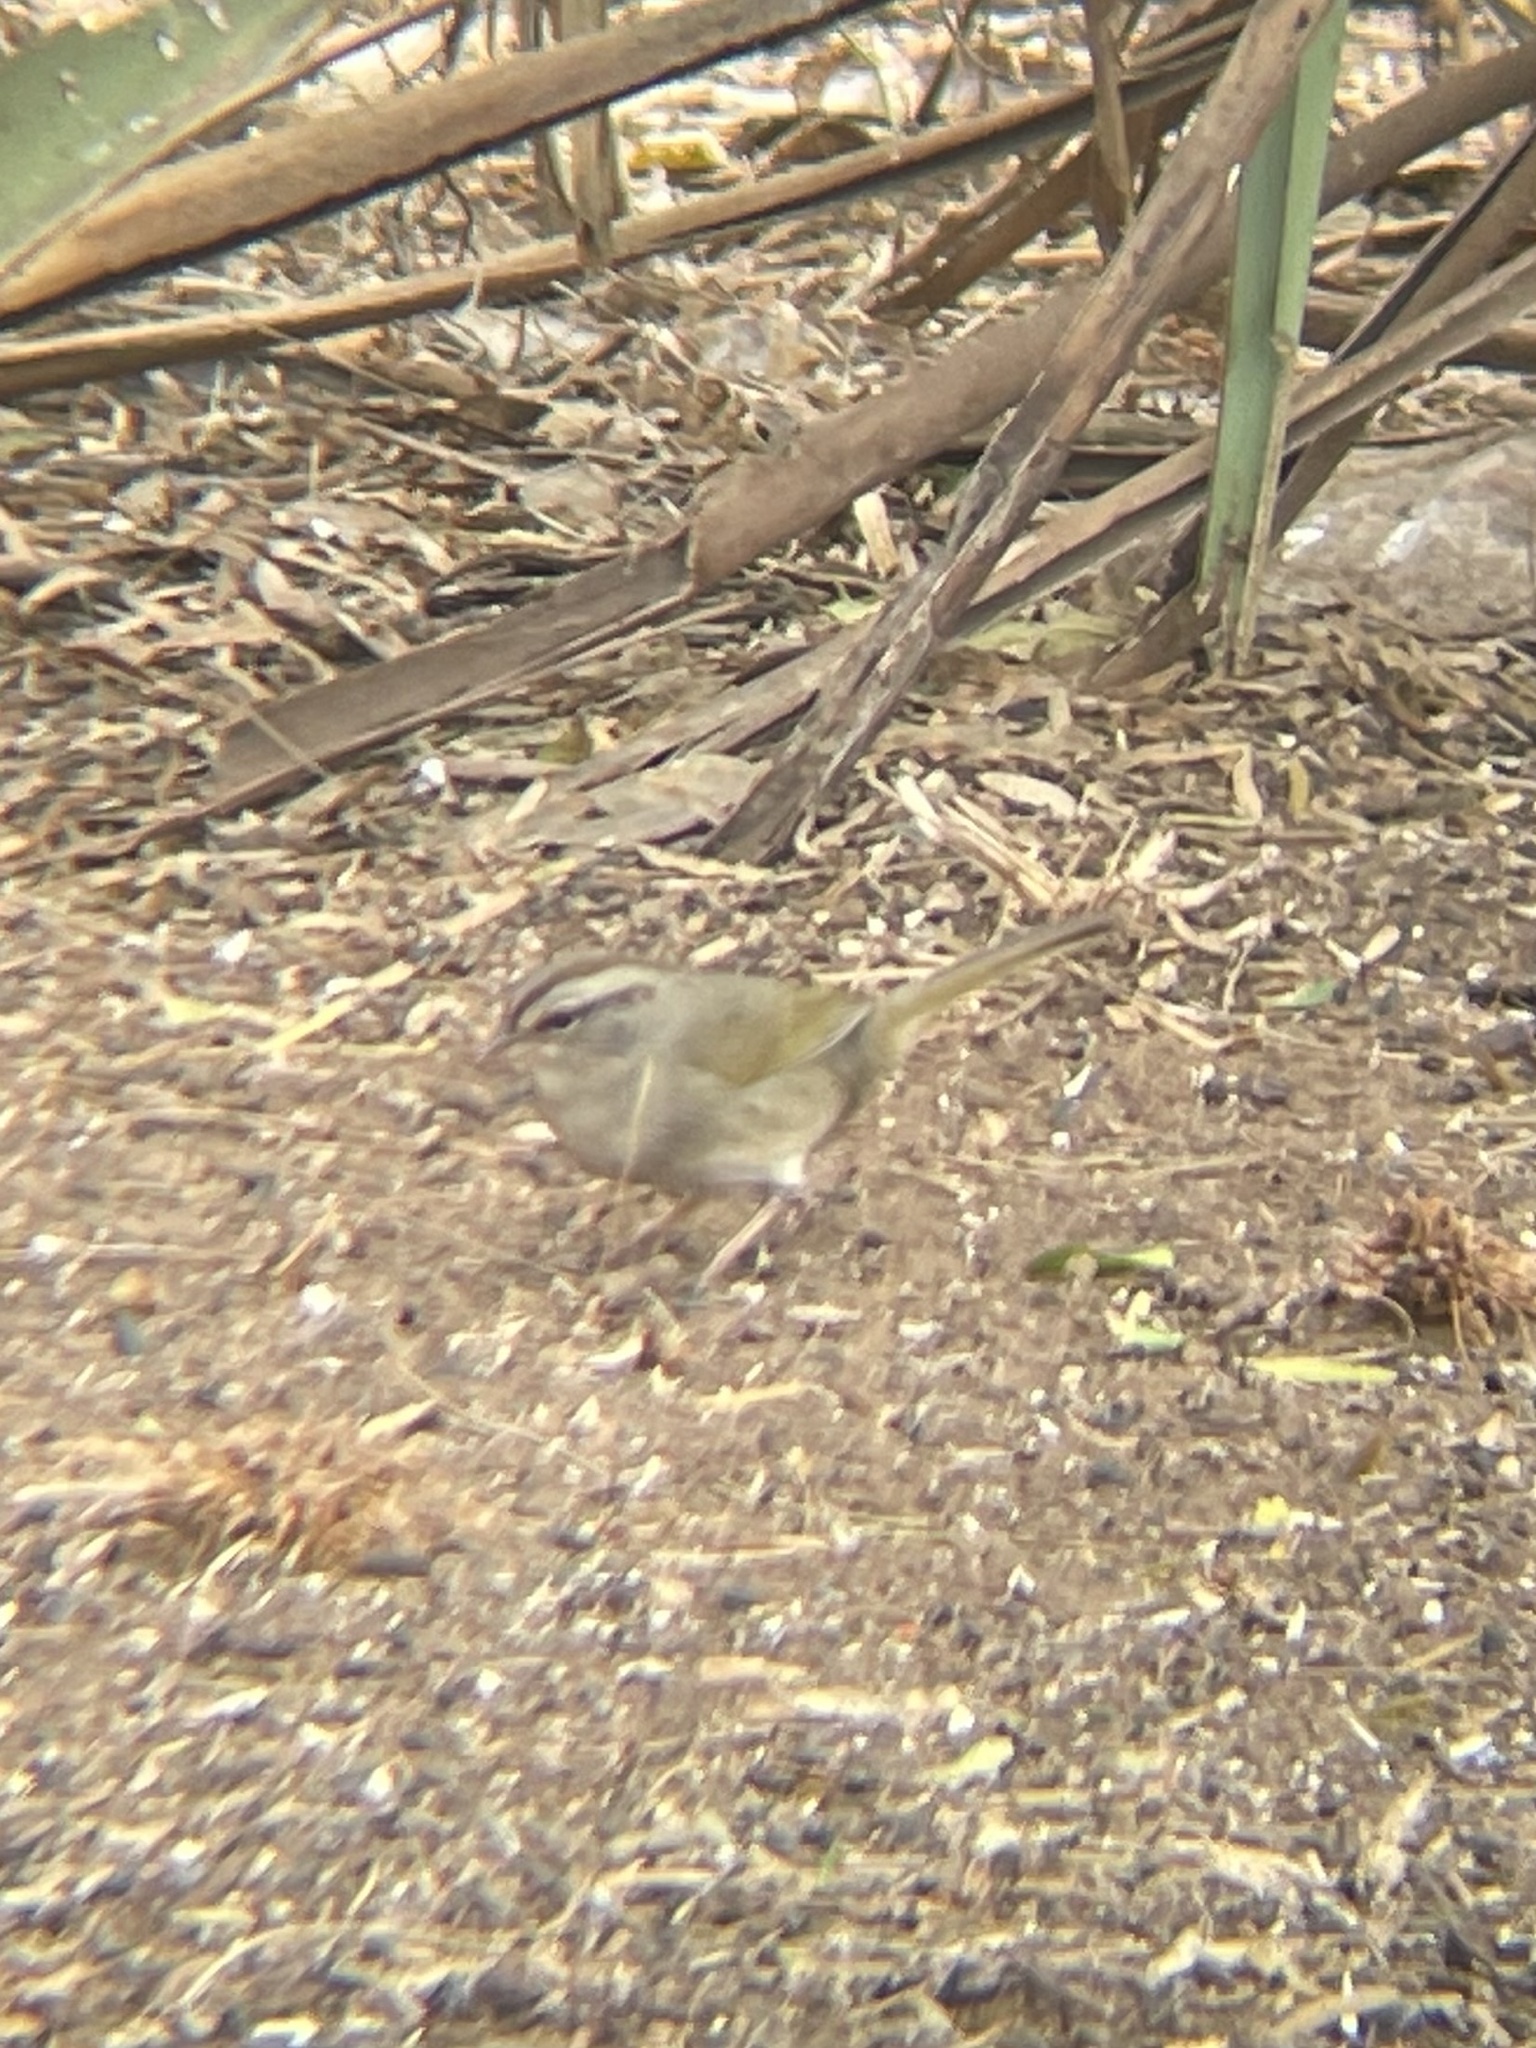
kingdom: Animalia
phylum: Chordata
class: Aves
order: Passeriformes
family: Passerellidae
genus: Arremonops
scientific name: Arremonops rufivirgatus
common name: Olive sparrow
